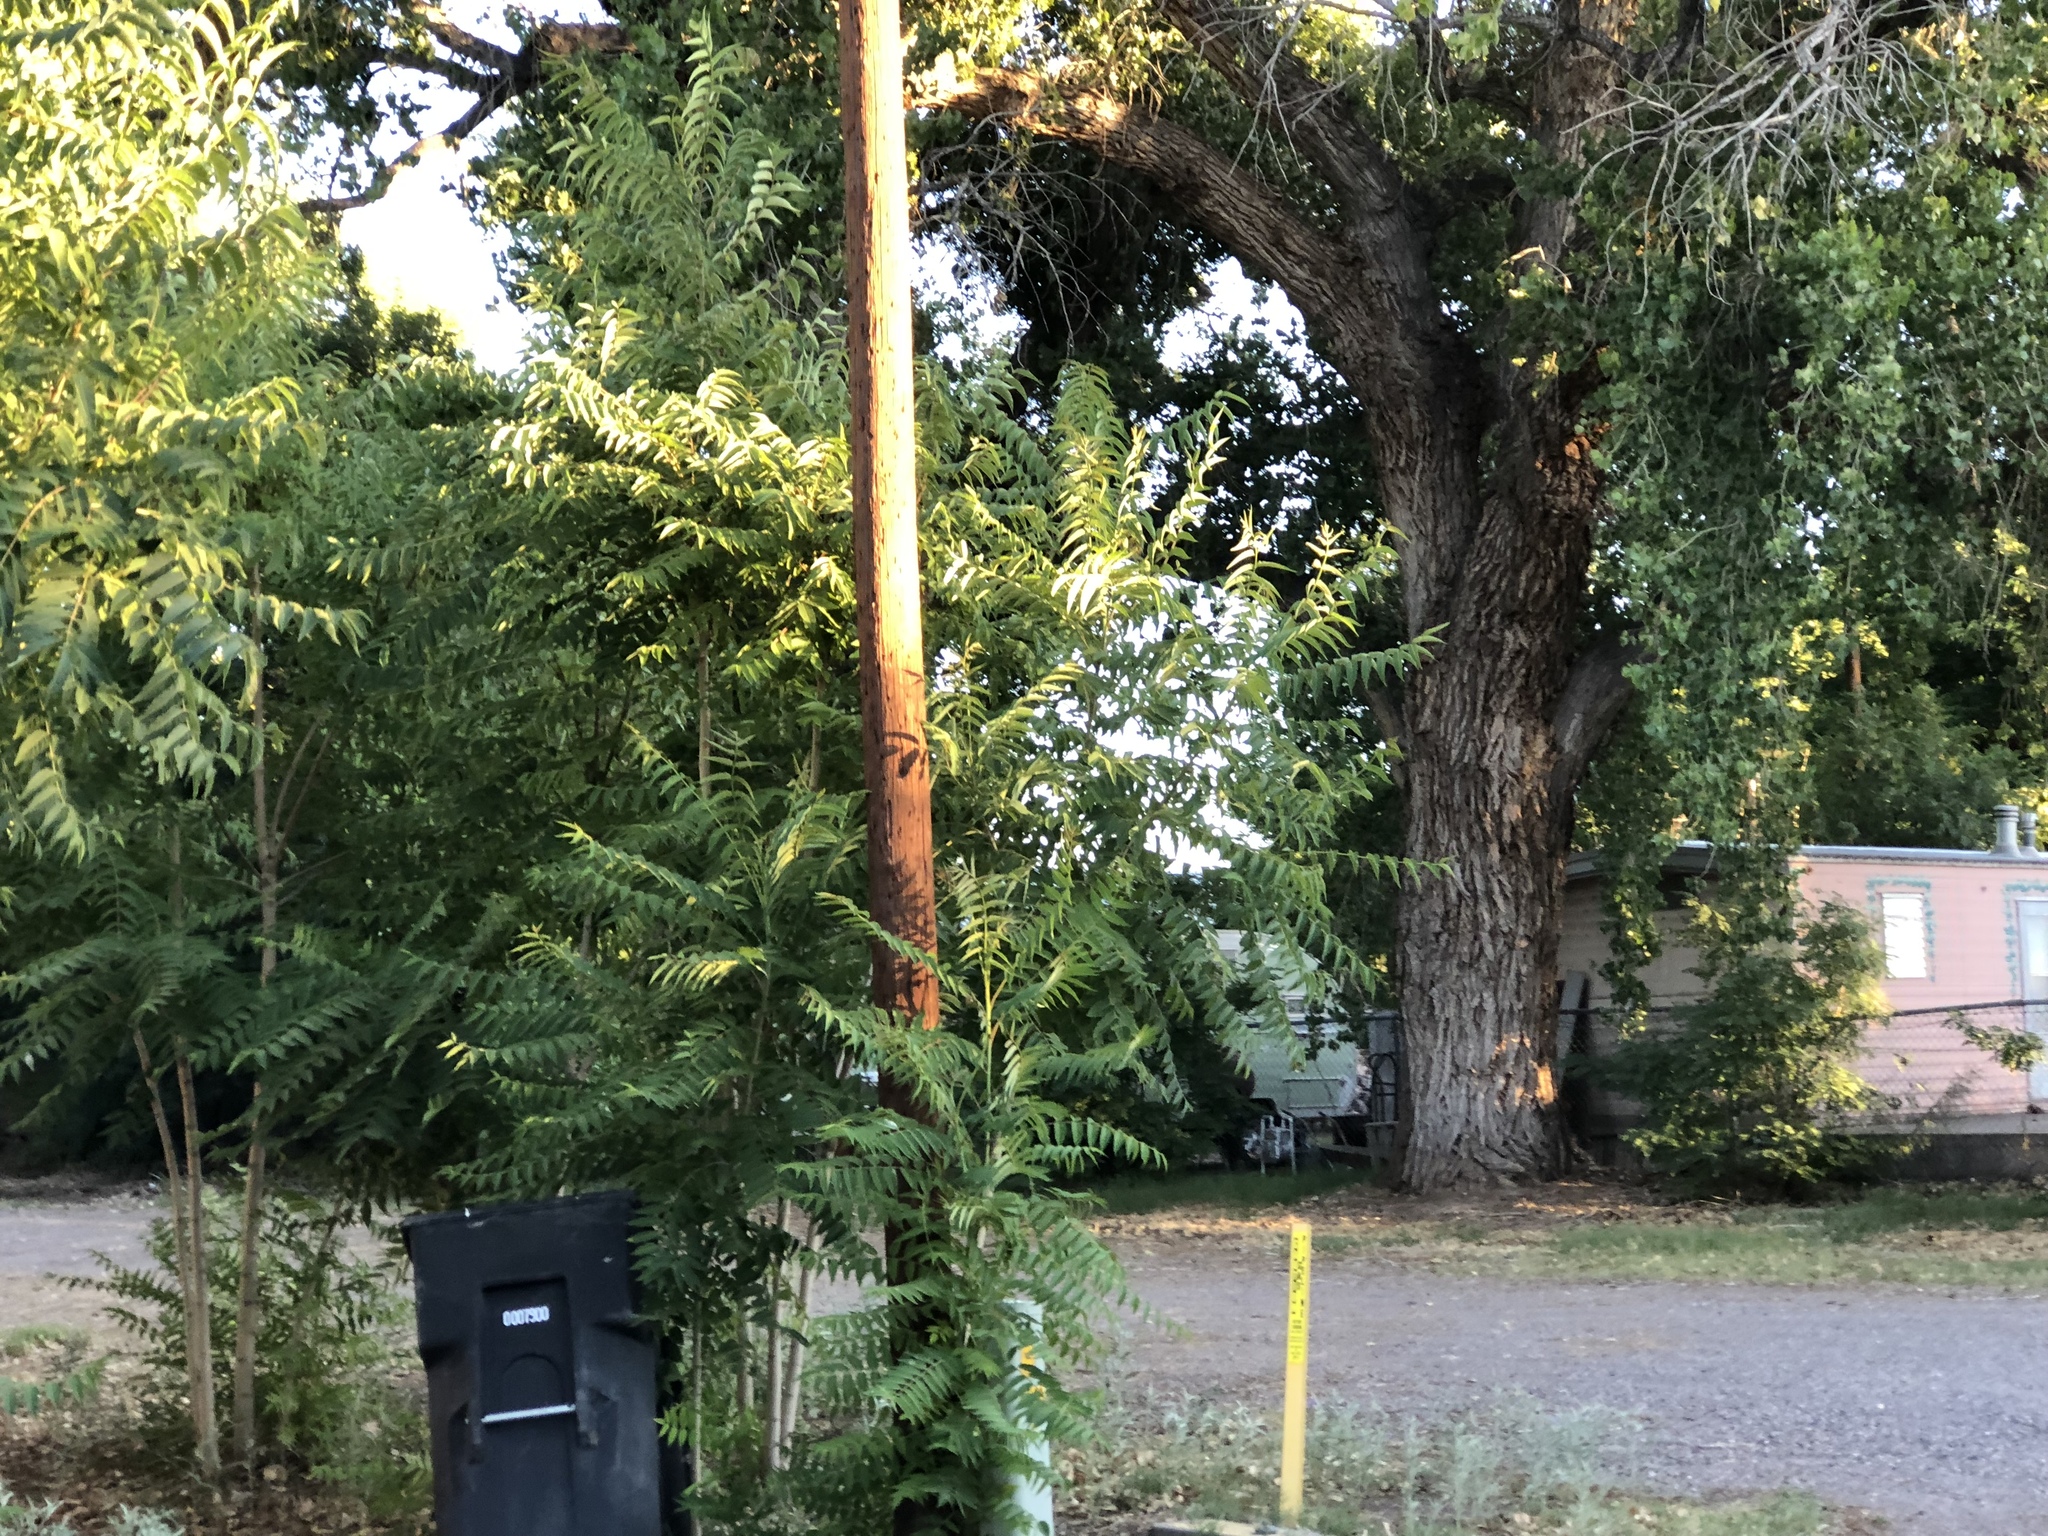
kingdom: Plantae
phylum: Tracheophyta
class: Magnoliopsida
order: Sapindales
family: Simaroubaceae
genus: Ailanthus
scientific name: Ailanthus altissima
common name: Tree-of-heaven
